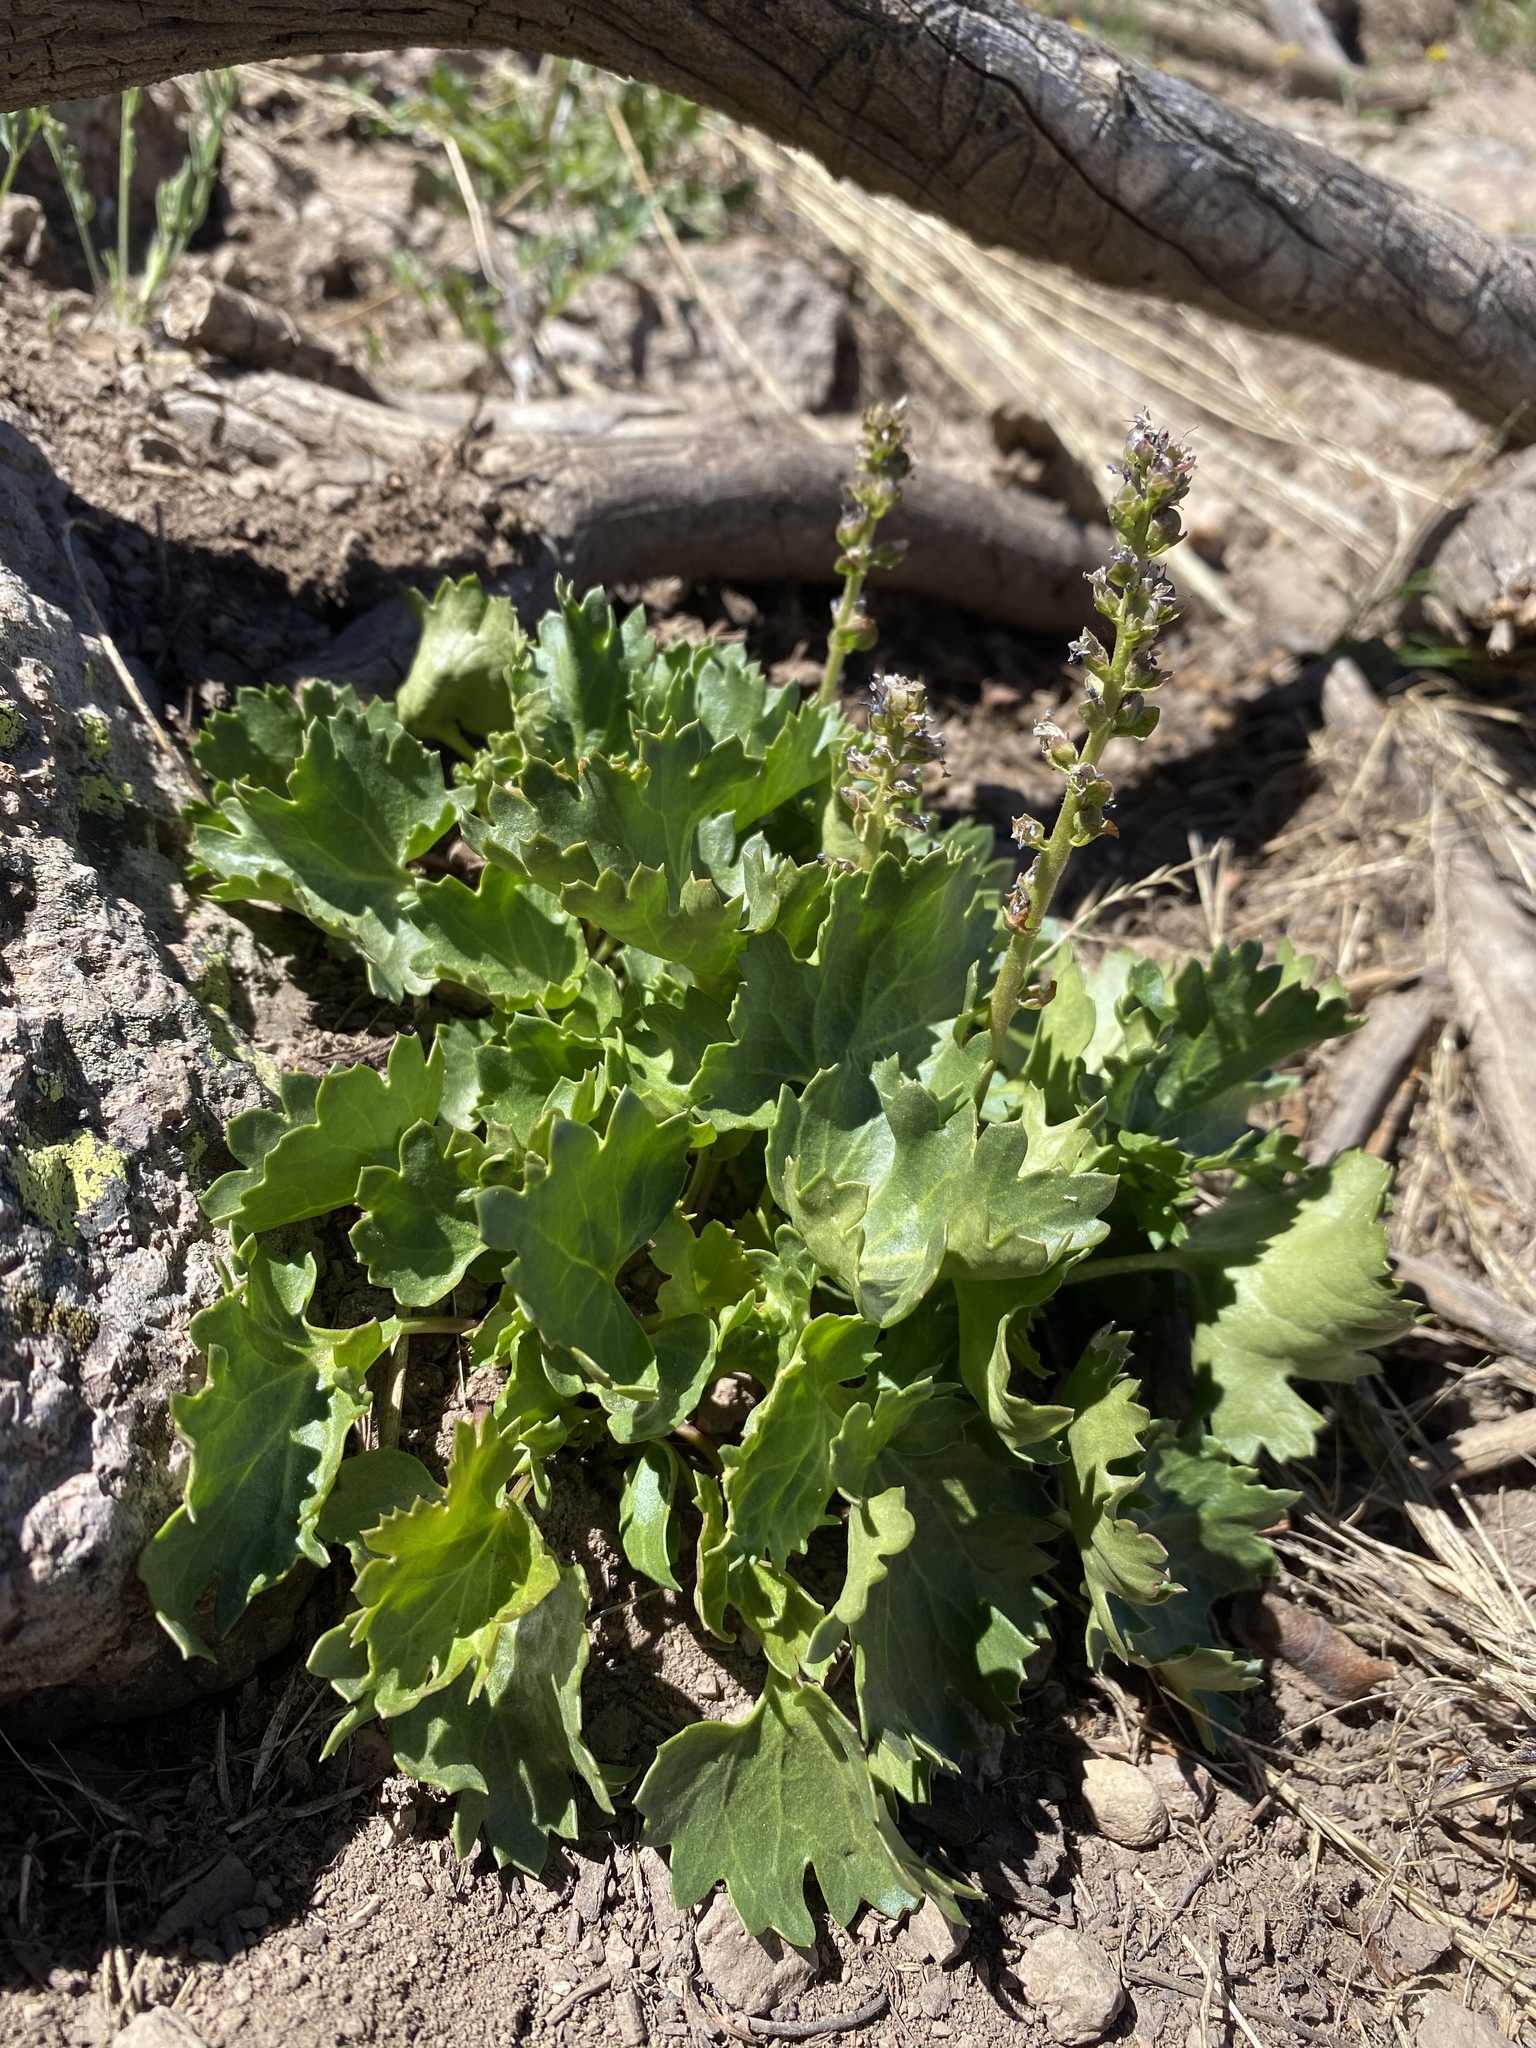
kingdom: Plantae
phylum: Tracheophyta
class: Magnoliopsida
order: Lamiales
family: Plantaginaceae
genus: Synthyris
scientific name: Synthyris laciniata
